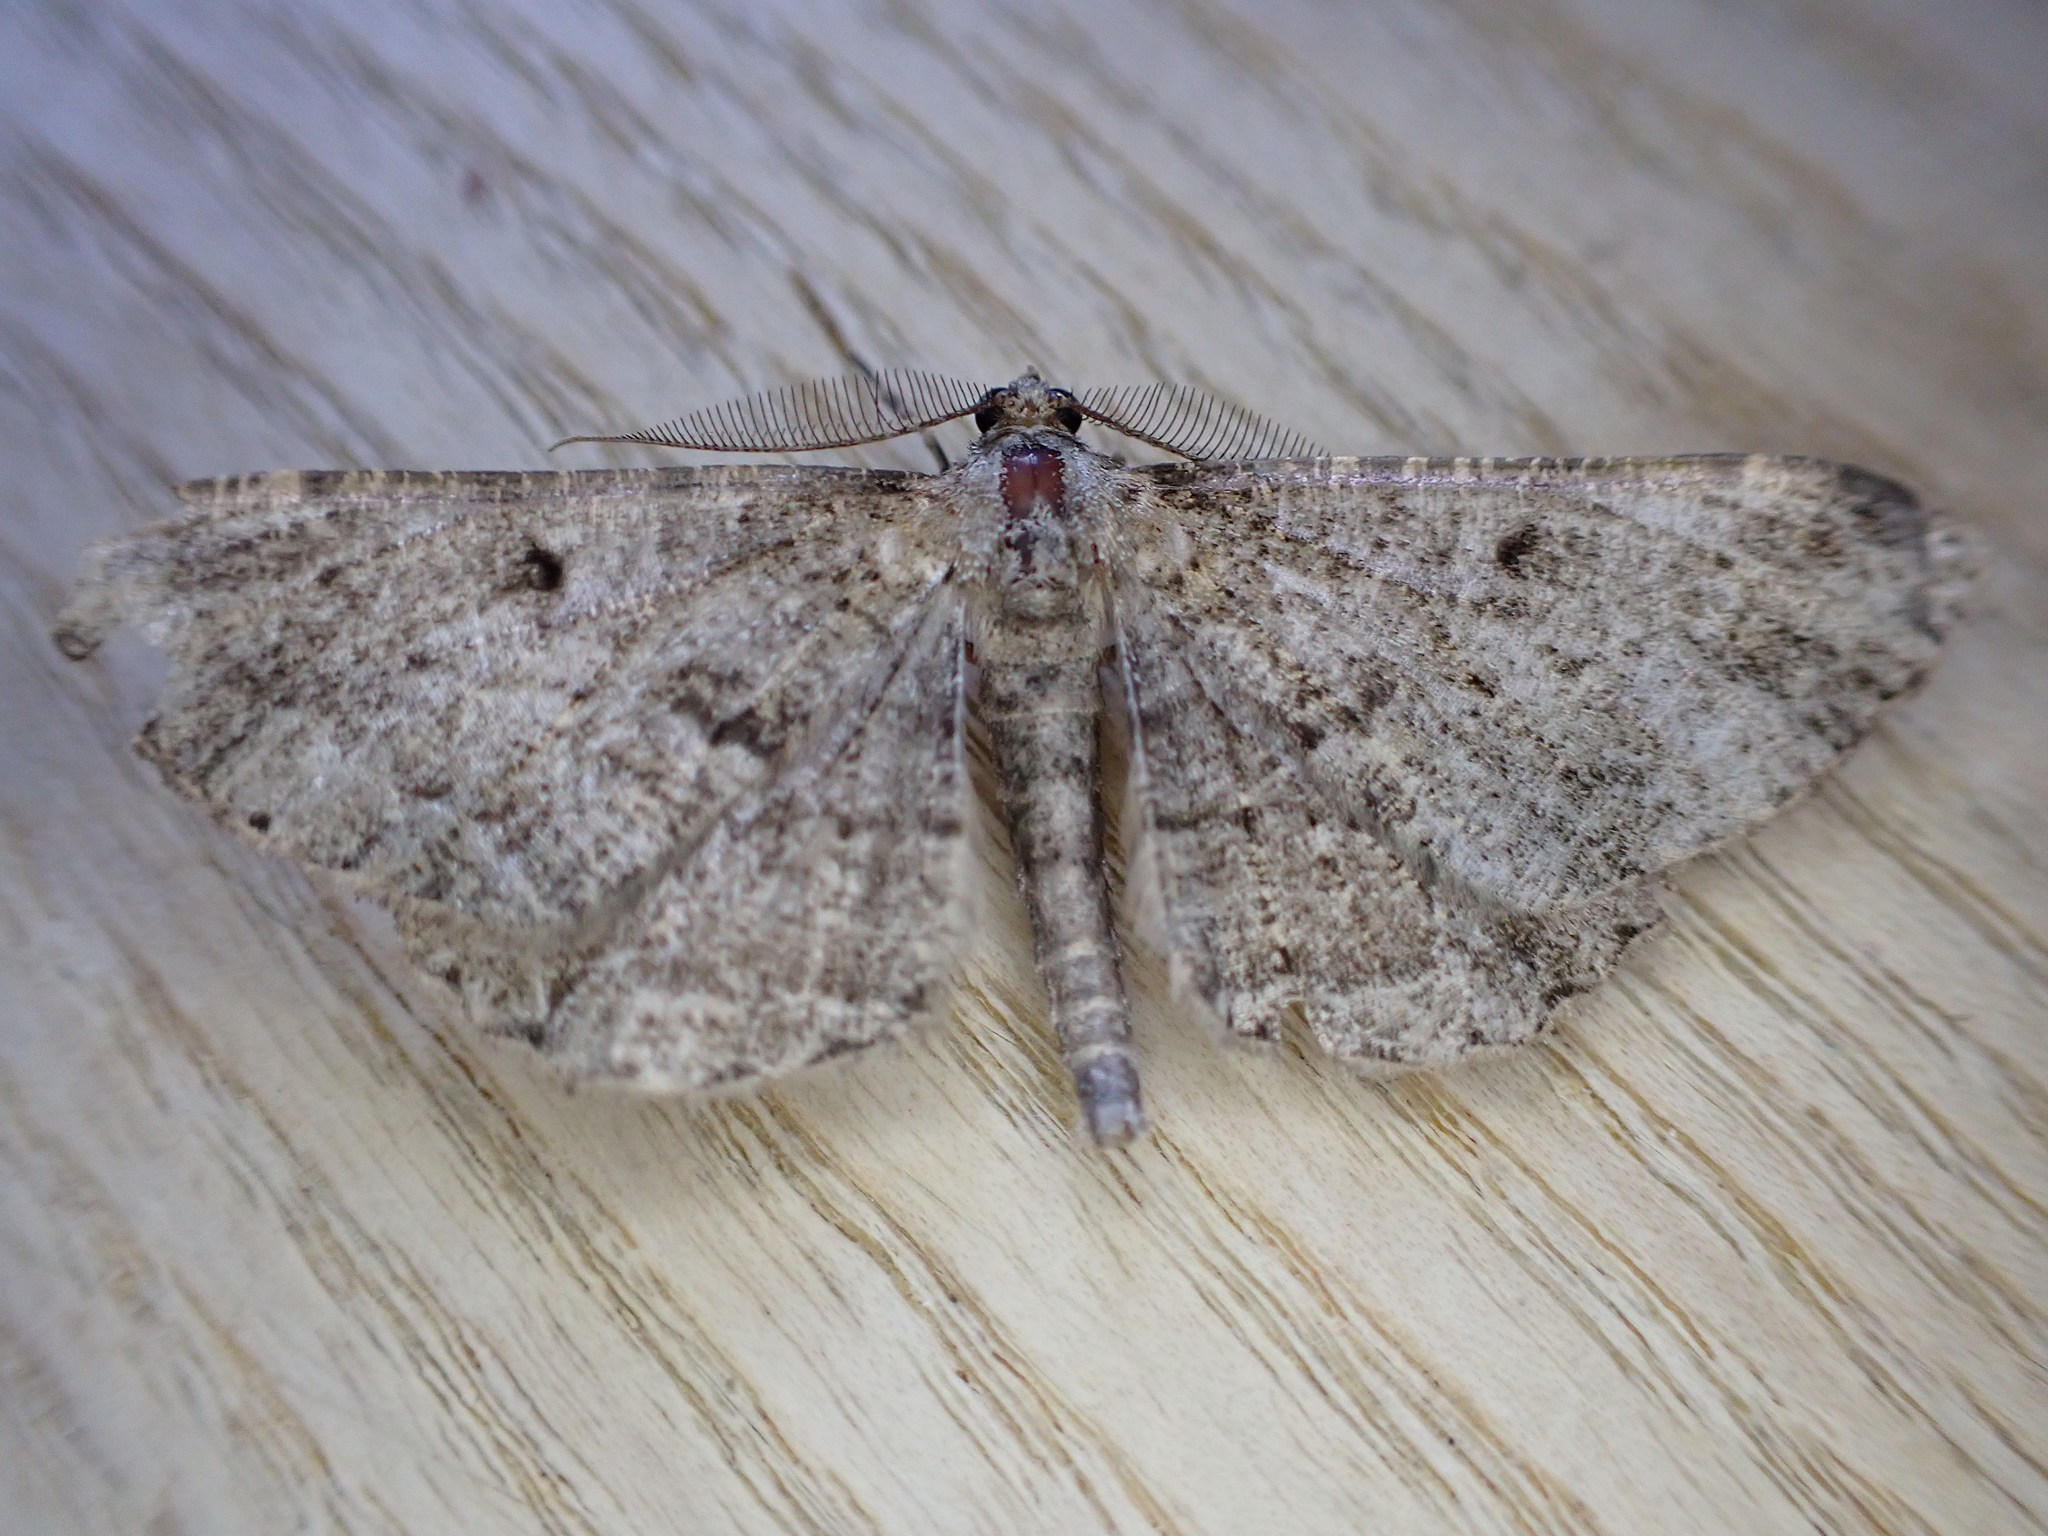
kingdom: Animalia
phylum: Arthropoda
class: Insecta
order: Lepidoptera
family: Geometridae
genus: Peribatodes
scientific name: Peribatodes rhomboidaria
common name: Willow beauty
